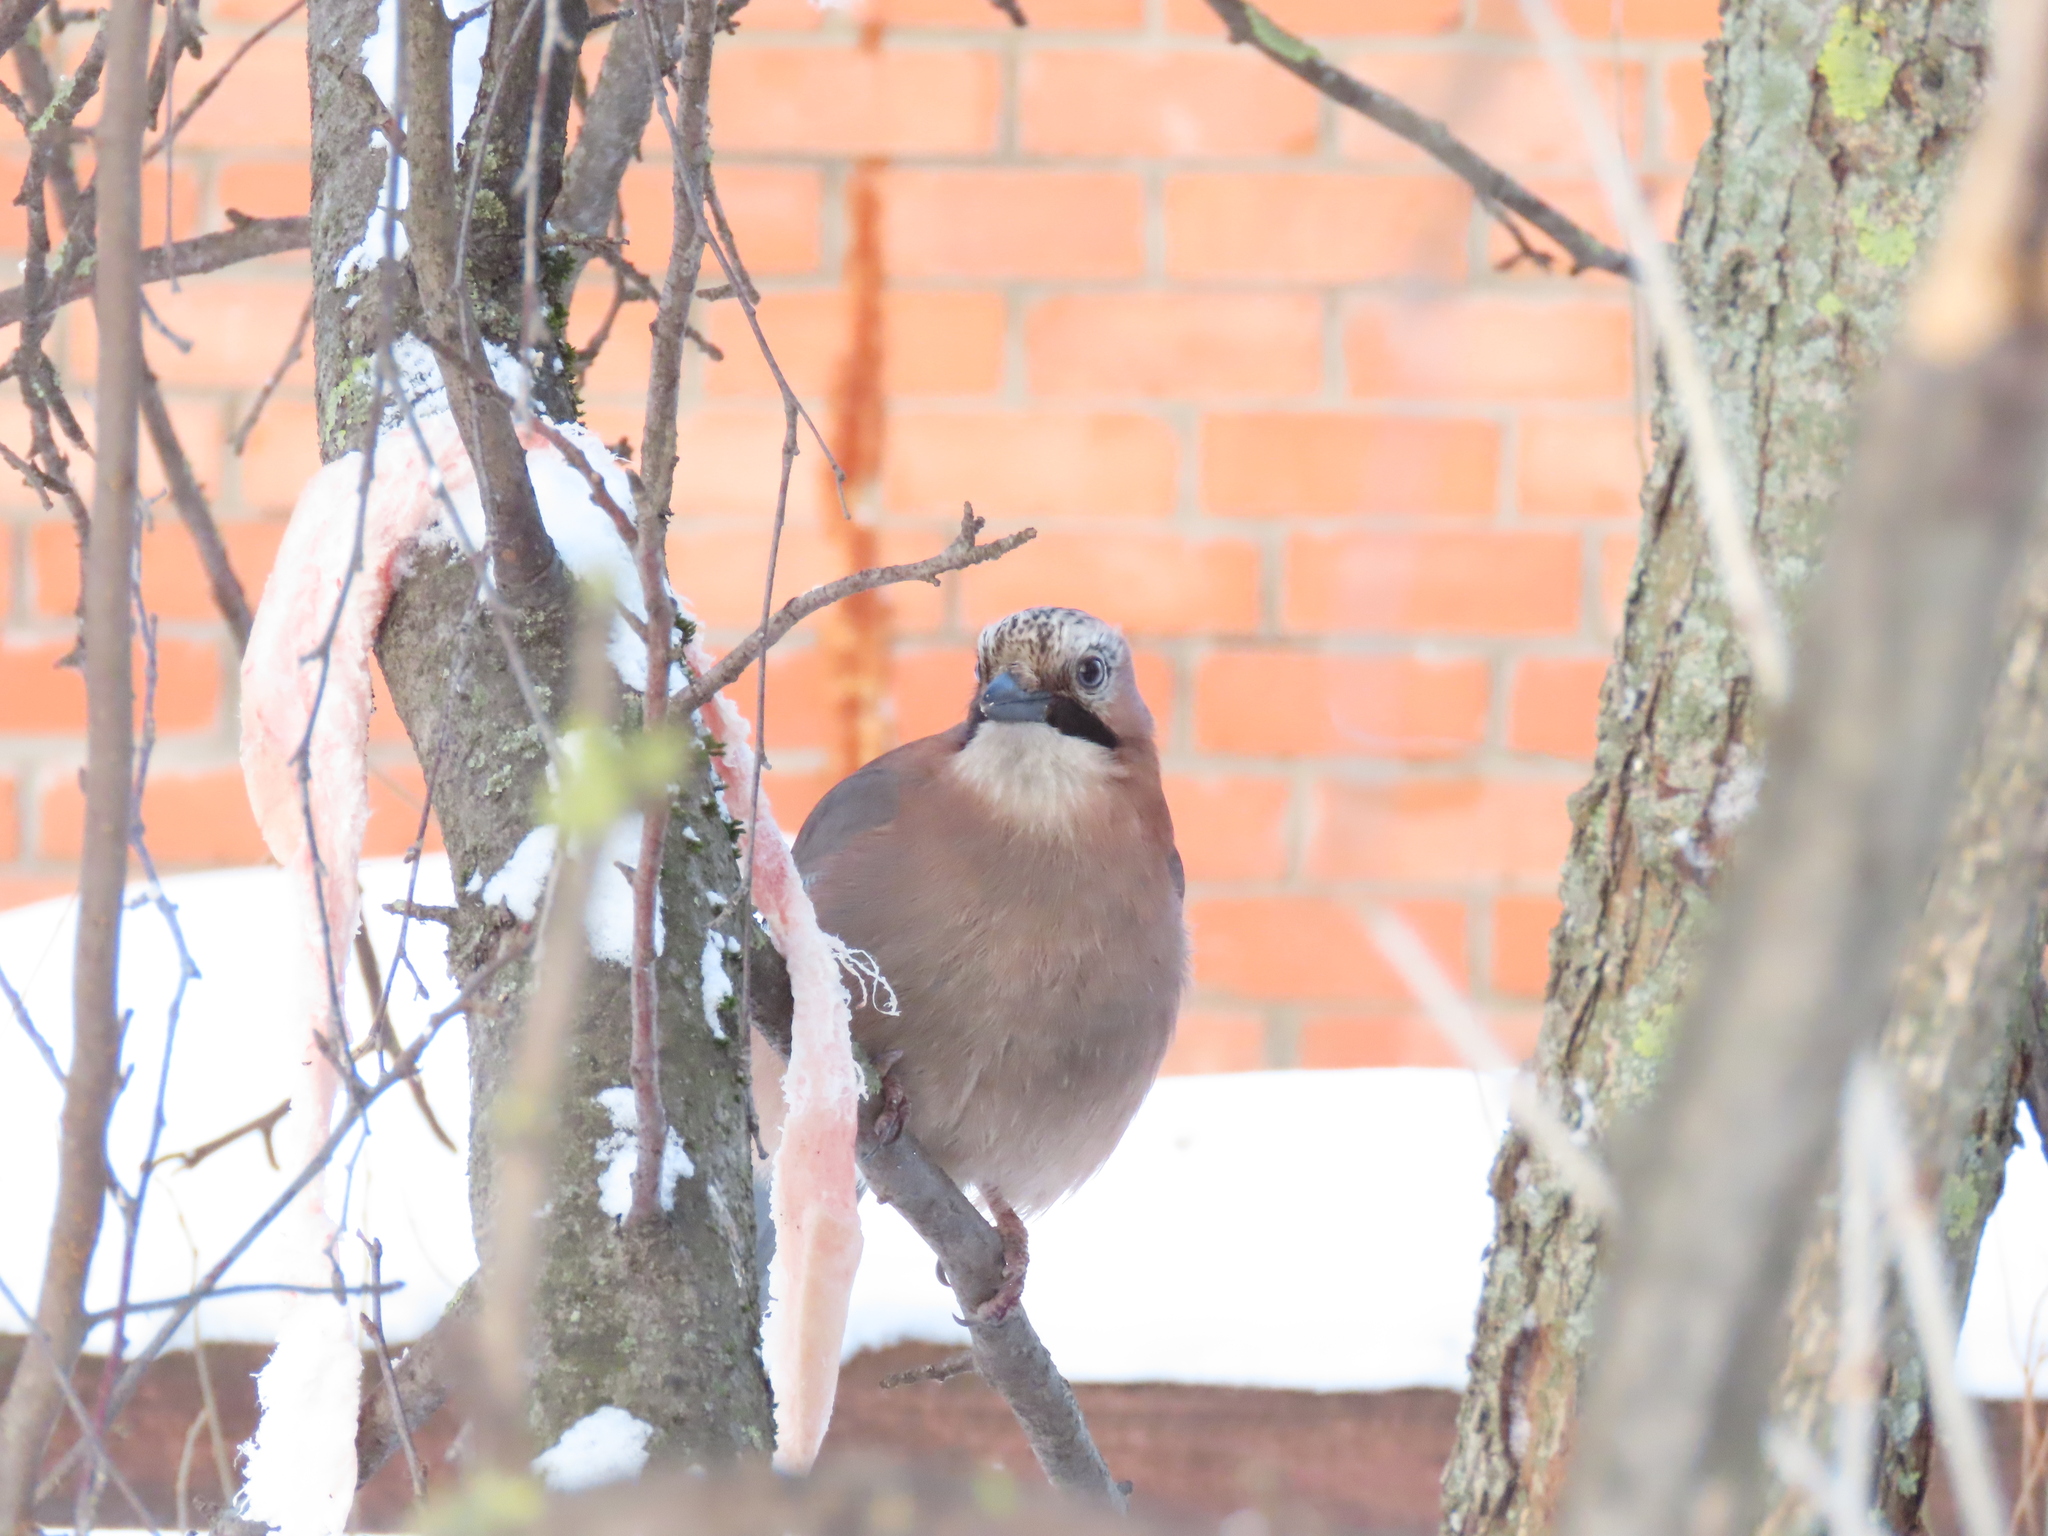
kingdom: Animalia
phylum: Chordata
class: Aves
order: Passeriformes
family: Corvidae
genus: Garrulus
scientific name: Garrulus glandarius
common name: Eurasian jay
